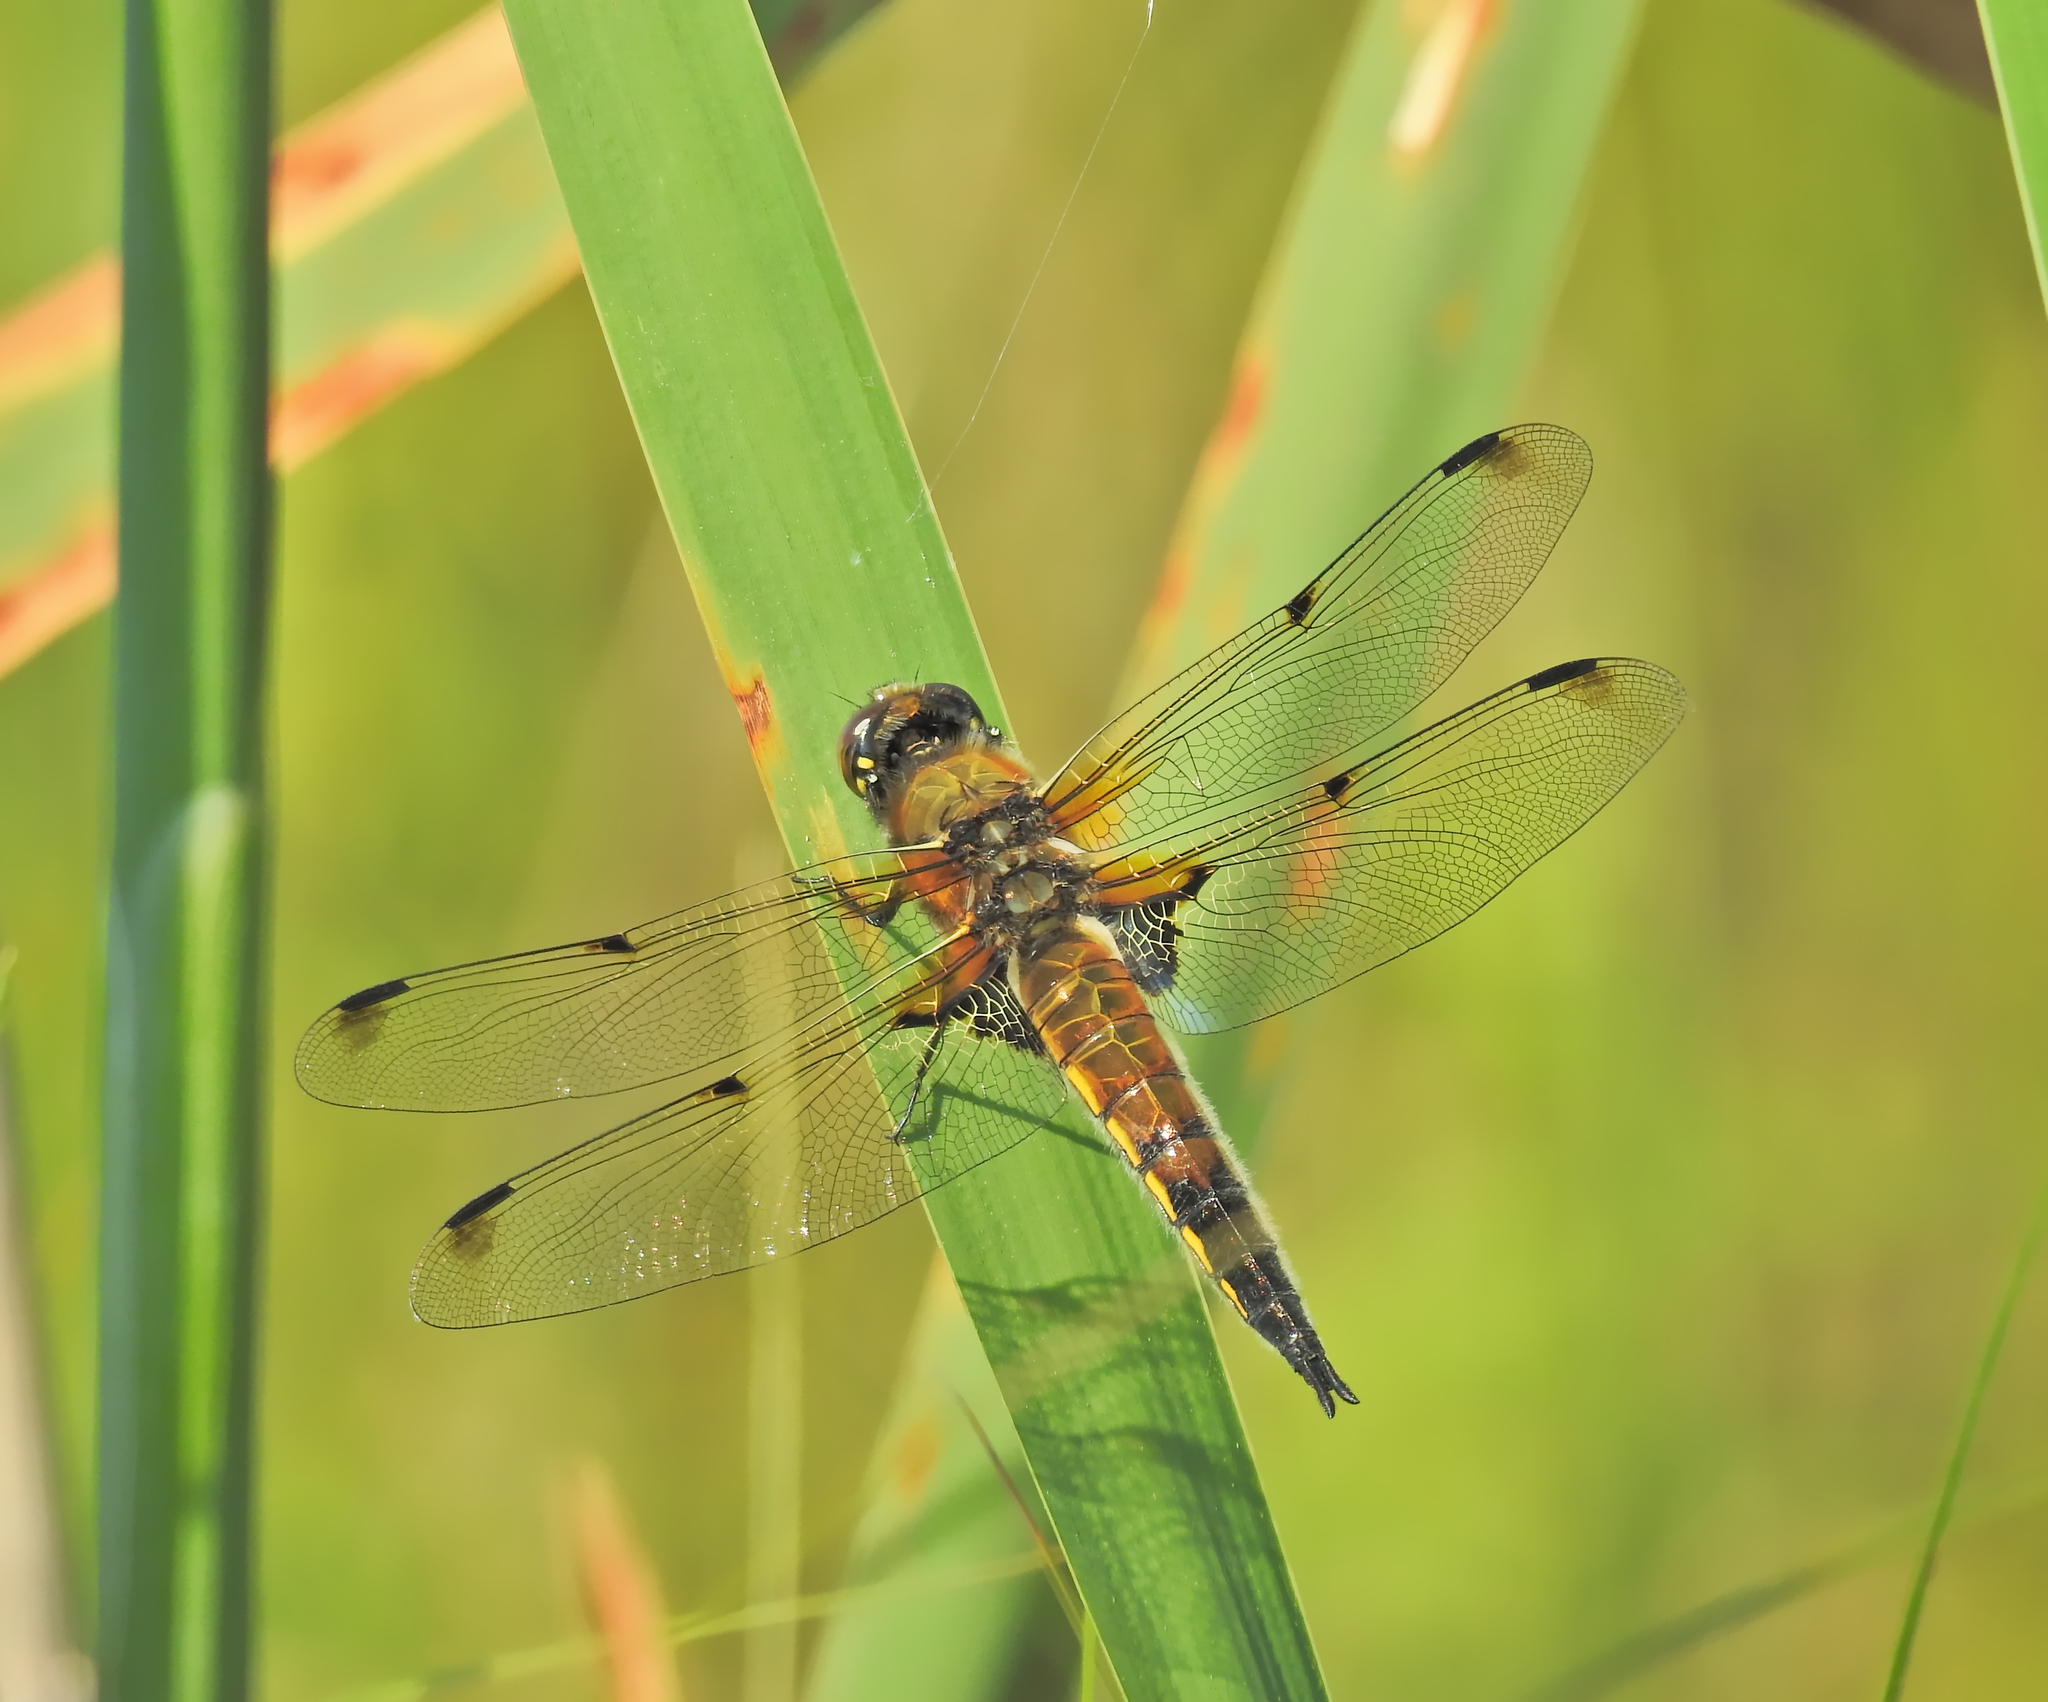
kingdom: Animalia
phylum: Arthropoda
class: Insecta
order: Odonata
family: Libellulidae
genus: Libellula
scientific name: Libellula quadrimaculata
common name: Four-spotted chaser
